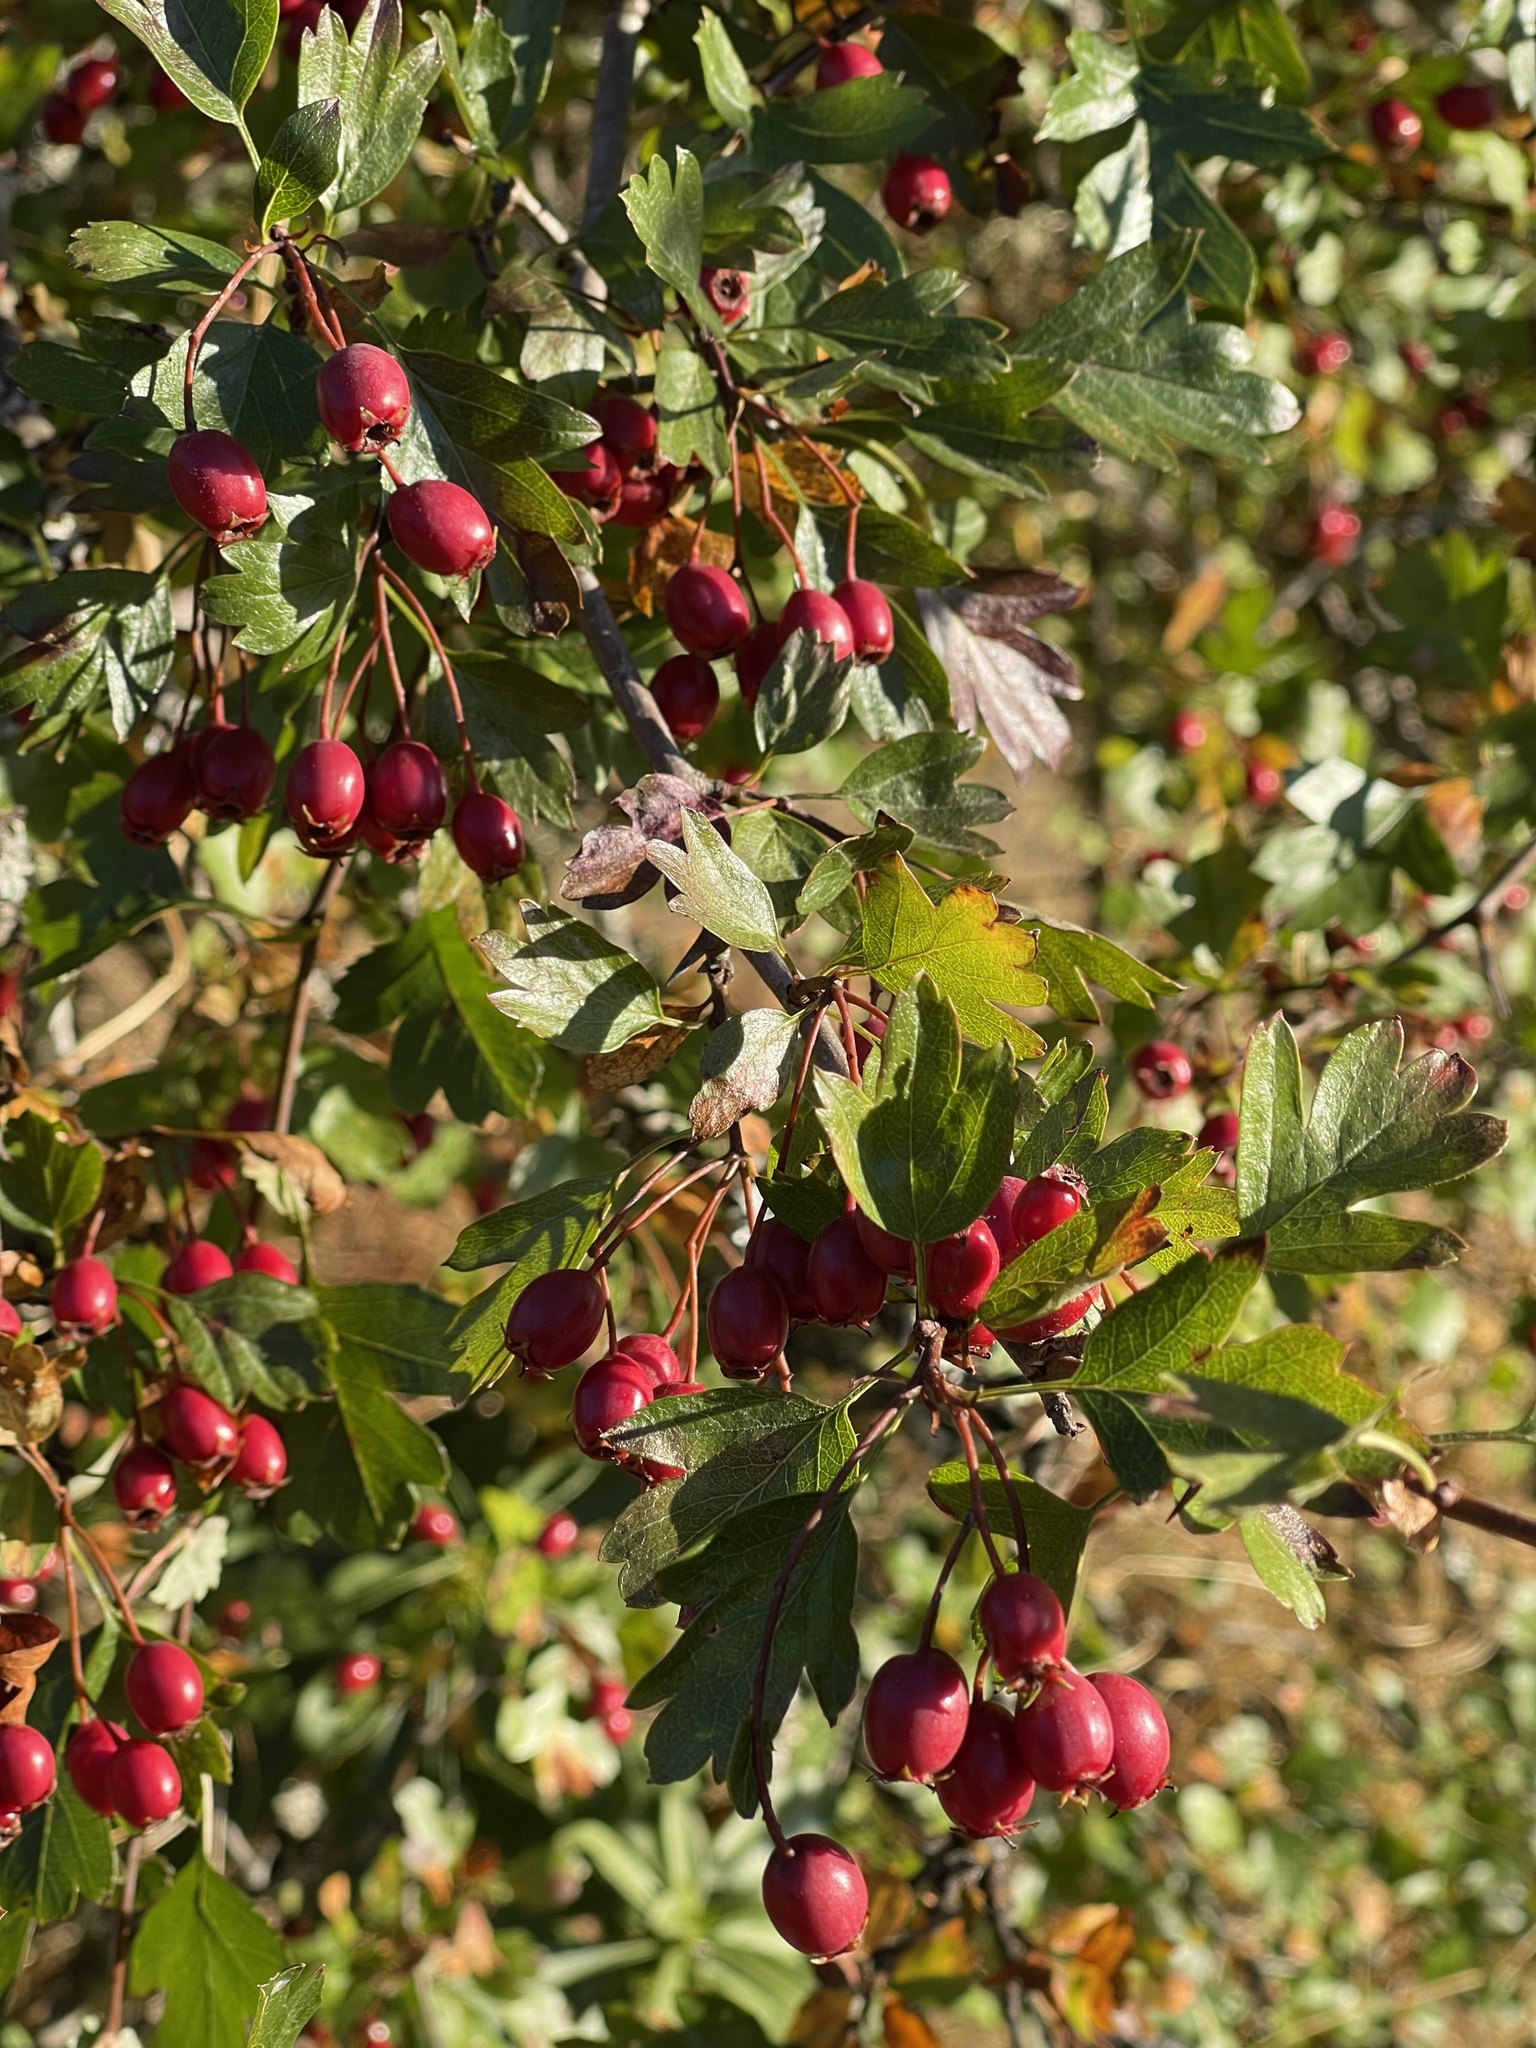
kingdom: Plantae
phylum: Tracheophyta
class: Magnoliopsida
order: Rosales
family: Rosaceae
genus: Crataegus
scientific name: Crataegus monogyna
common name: Hawthorn
